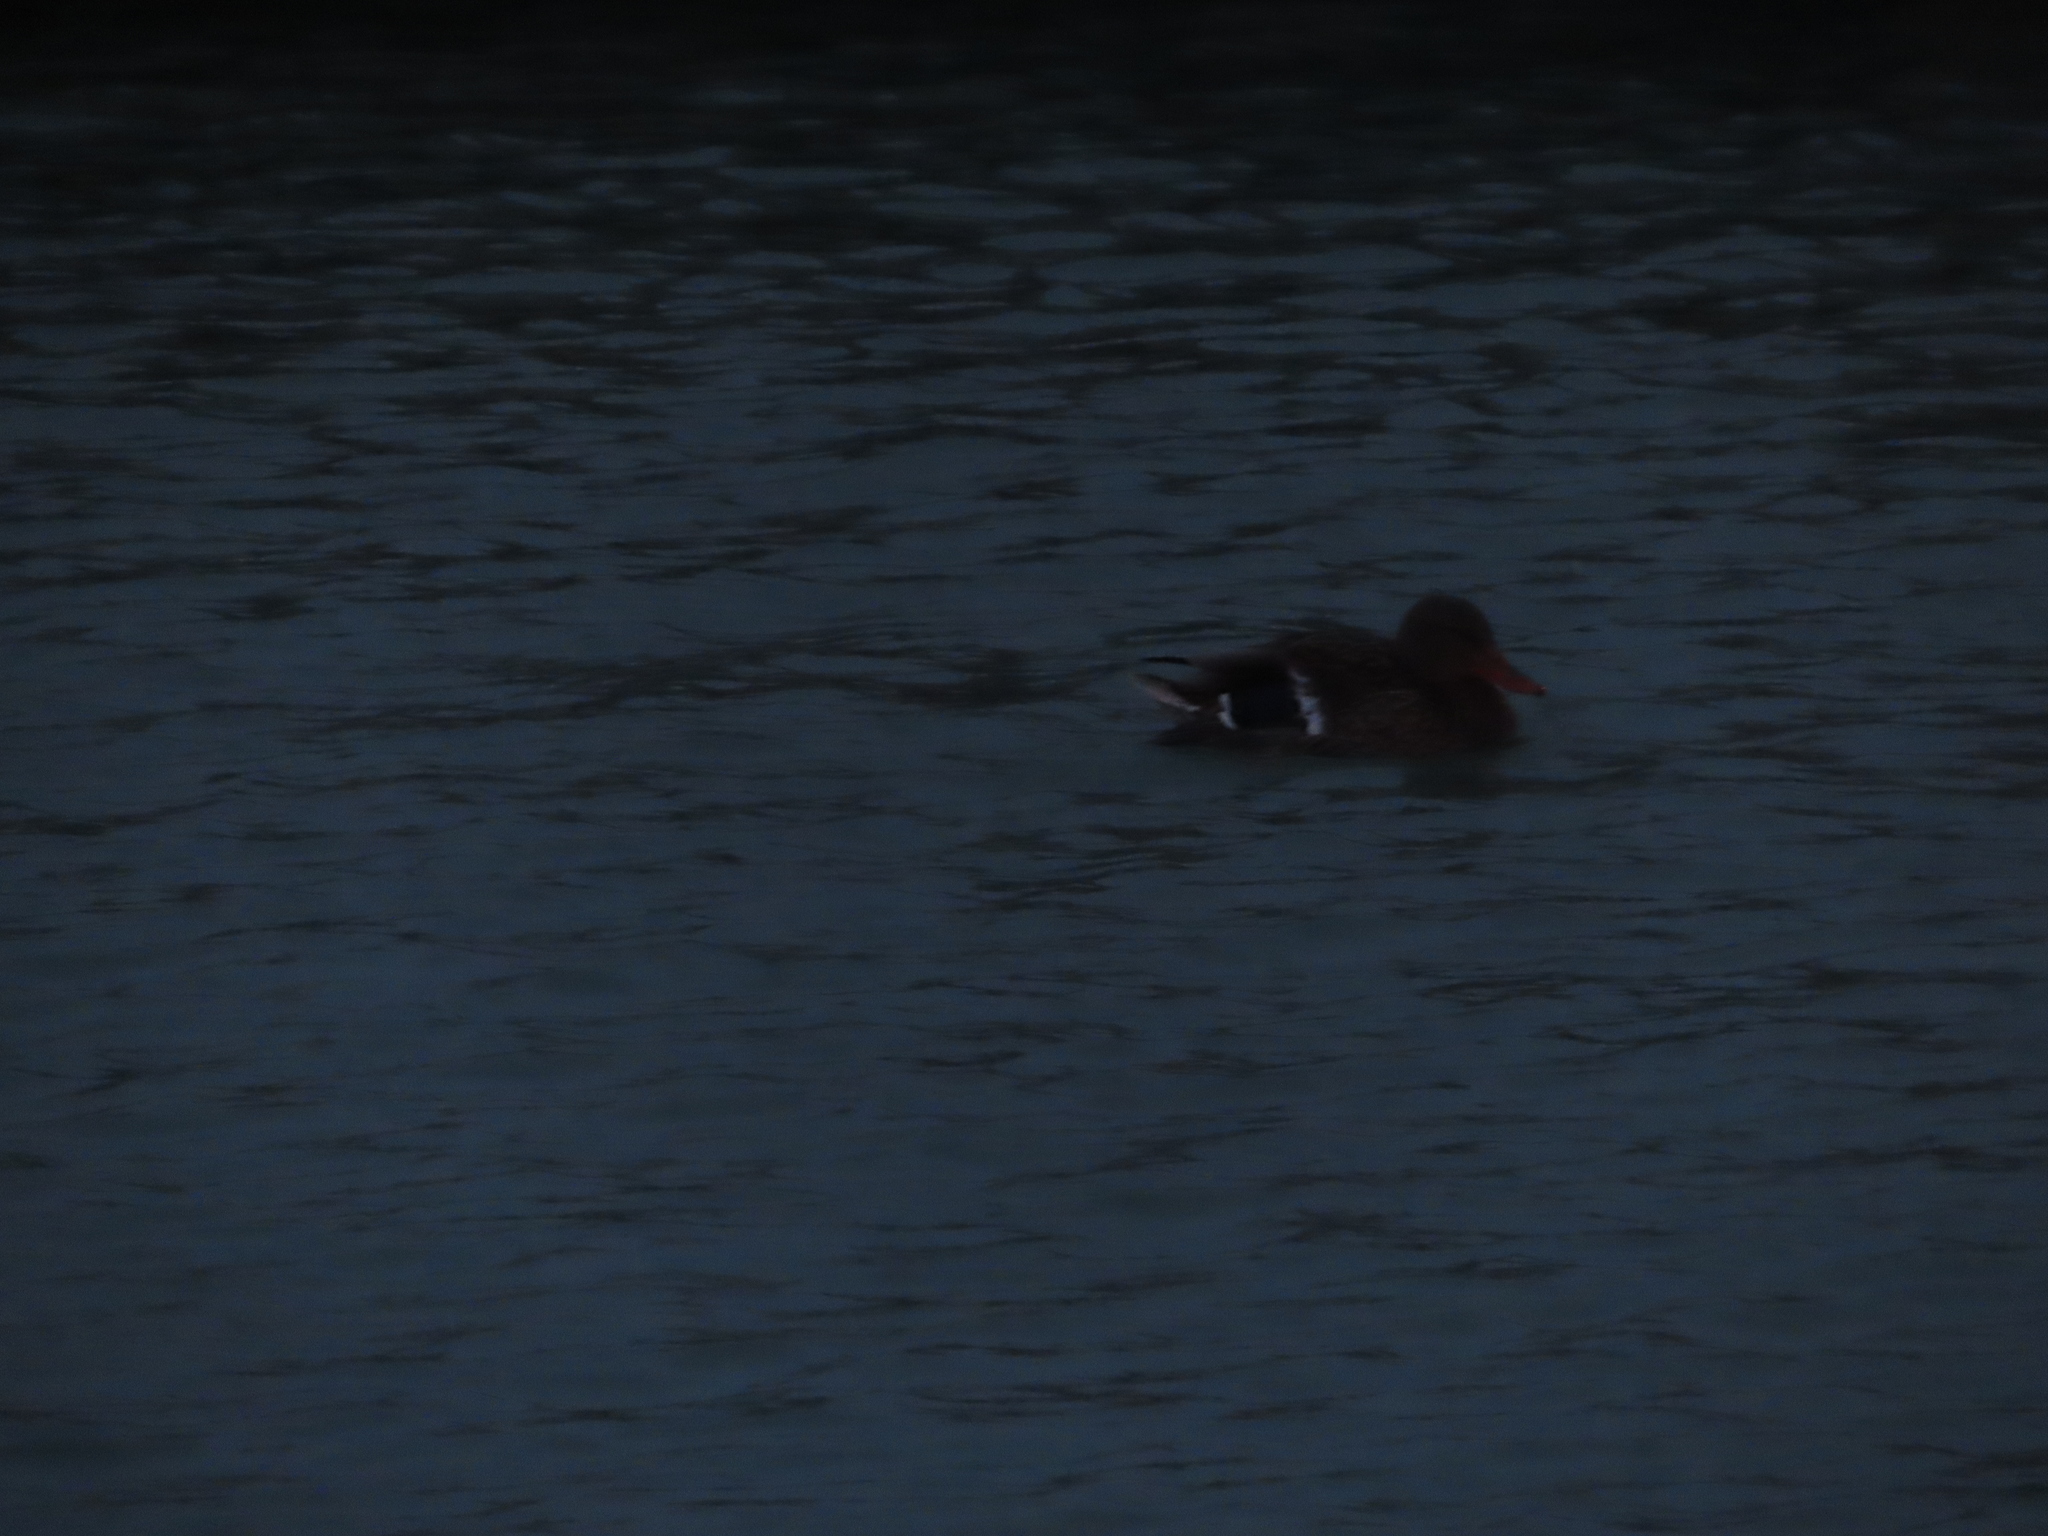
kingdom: Animalia
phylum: Chordata
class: Aves
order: Anseriformes
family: Anatidae
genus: Anas
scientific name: Anas platyrhynchos
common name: Mallard
